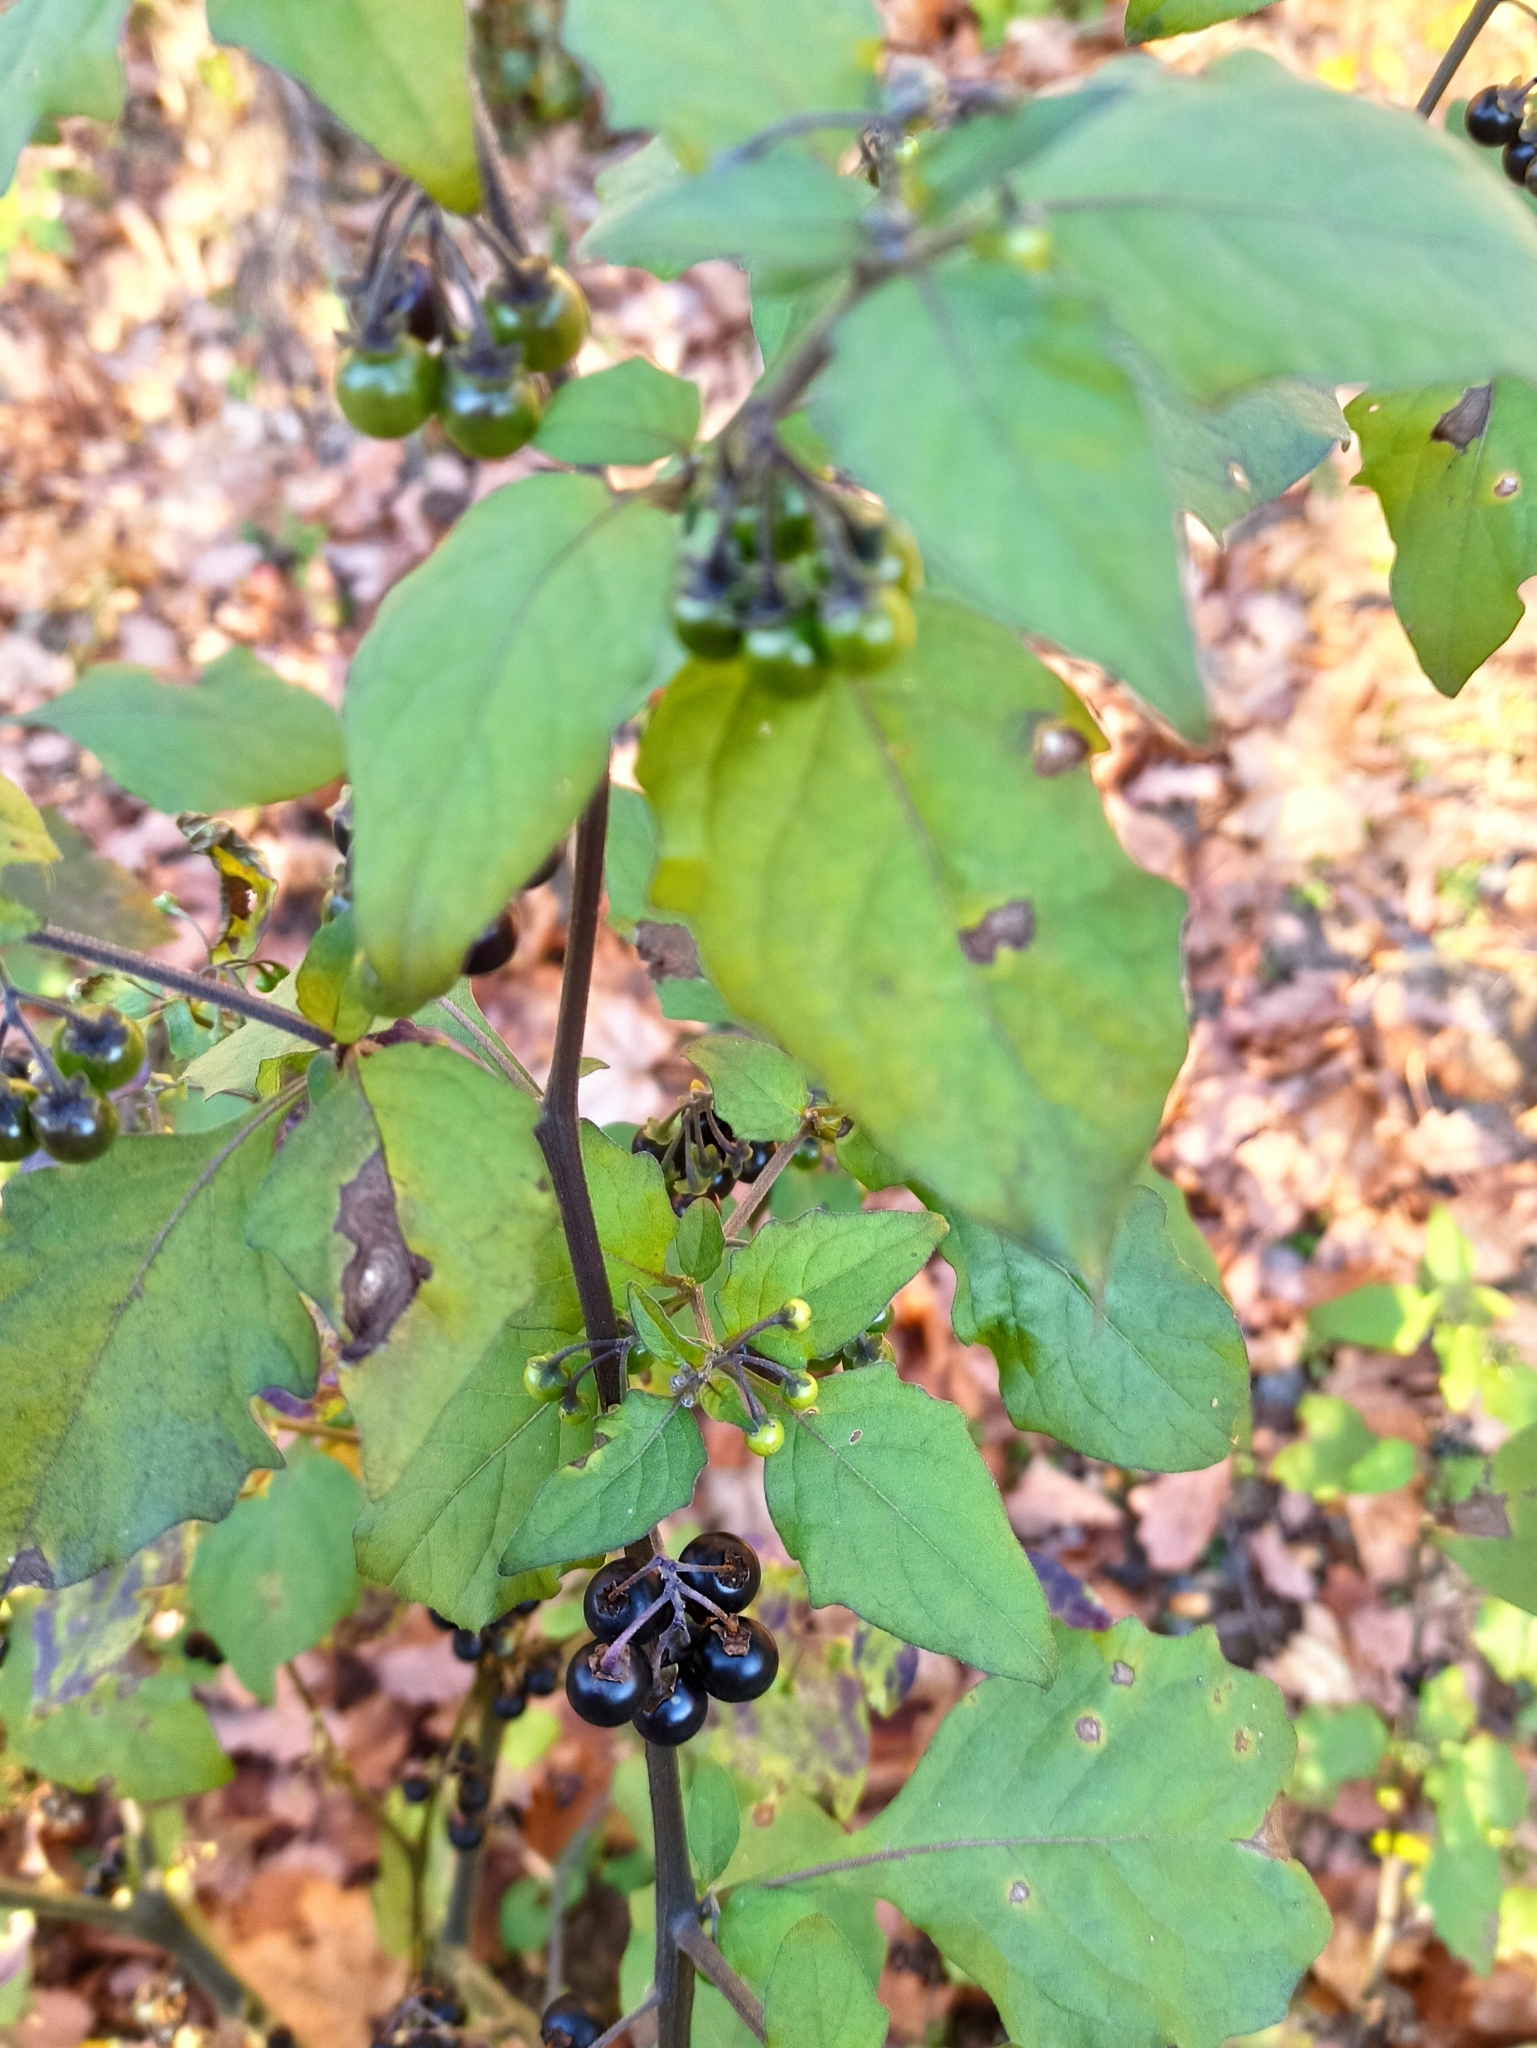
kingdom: Plantae
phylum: Tracheophyta
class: Magnoliopsida
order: Solanales
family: Solanaceae
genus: Solanum
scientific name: Solanum nigrum
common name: Black nightshade
